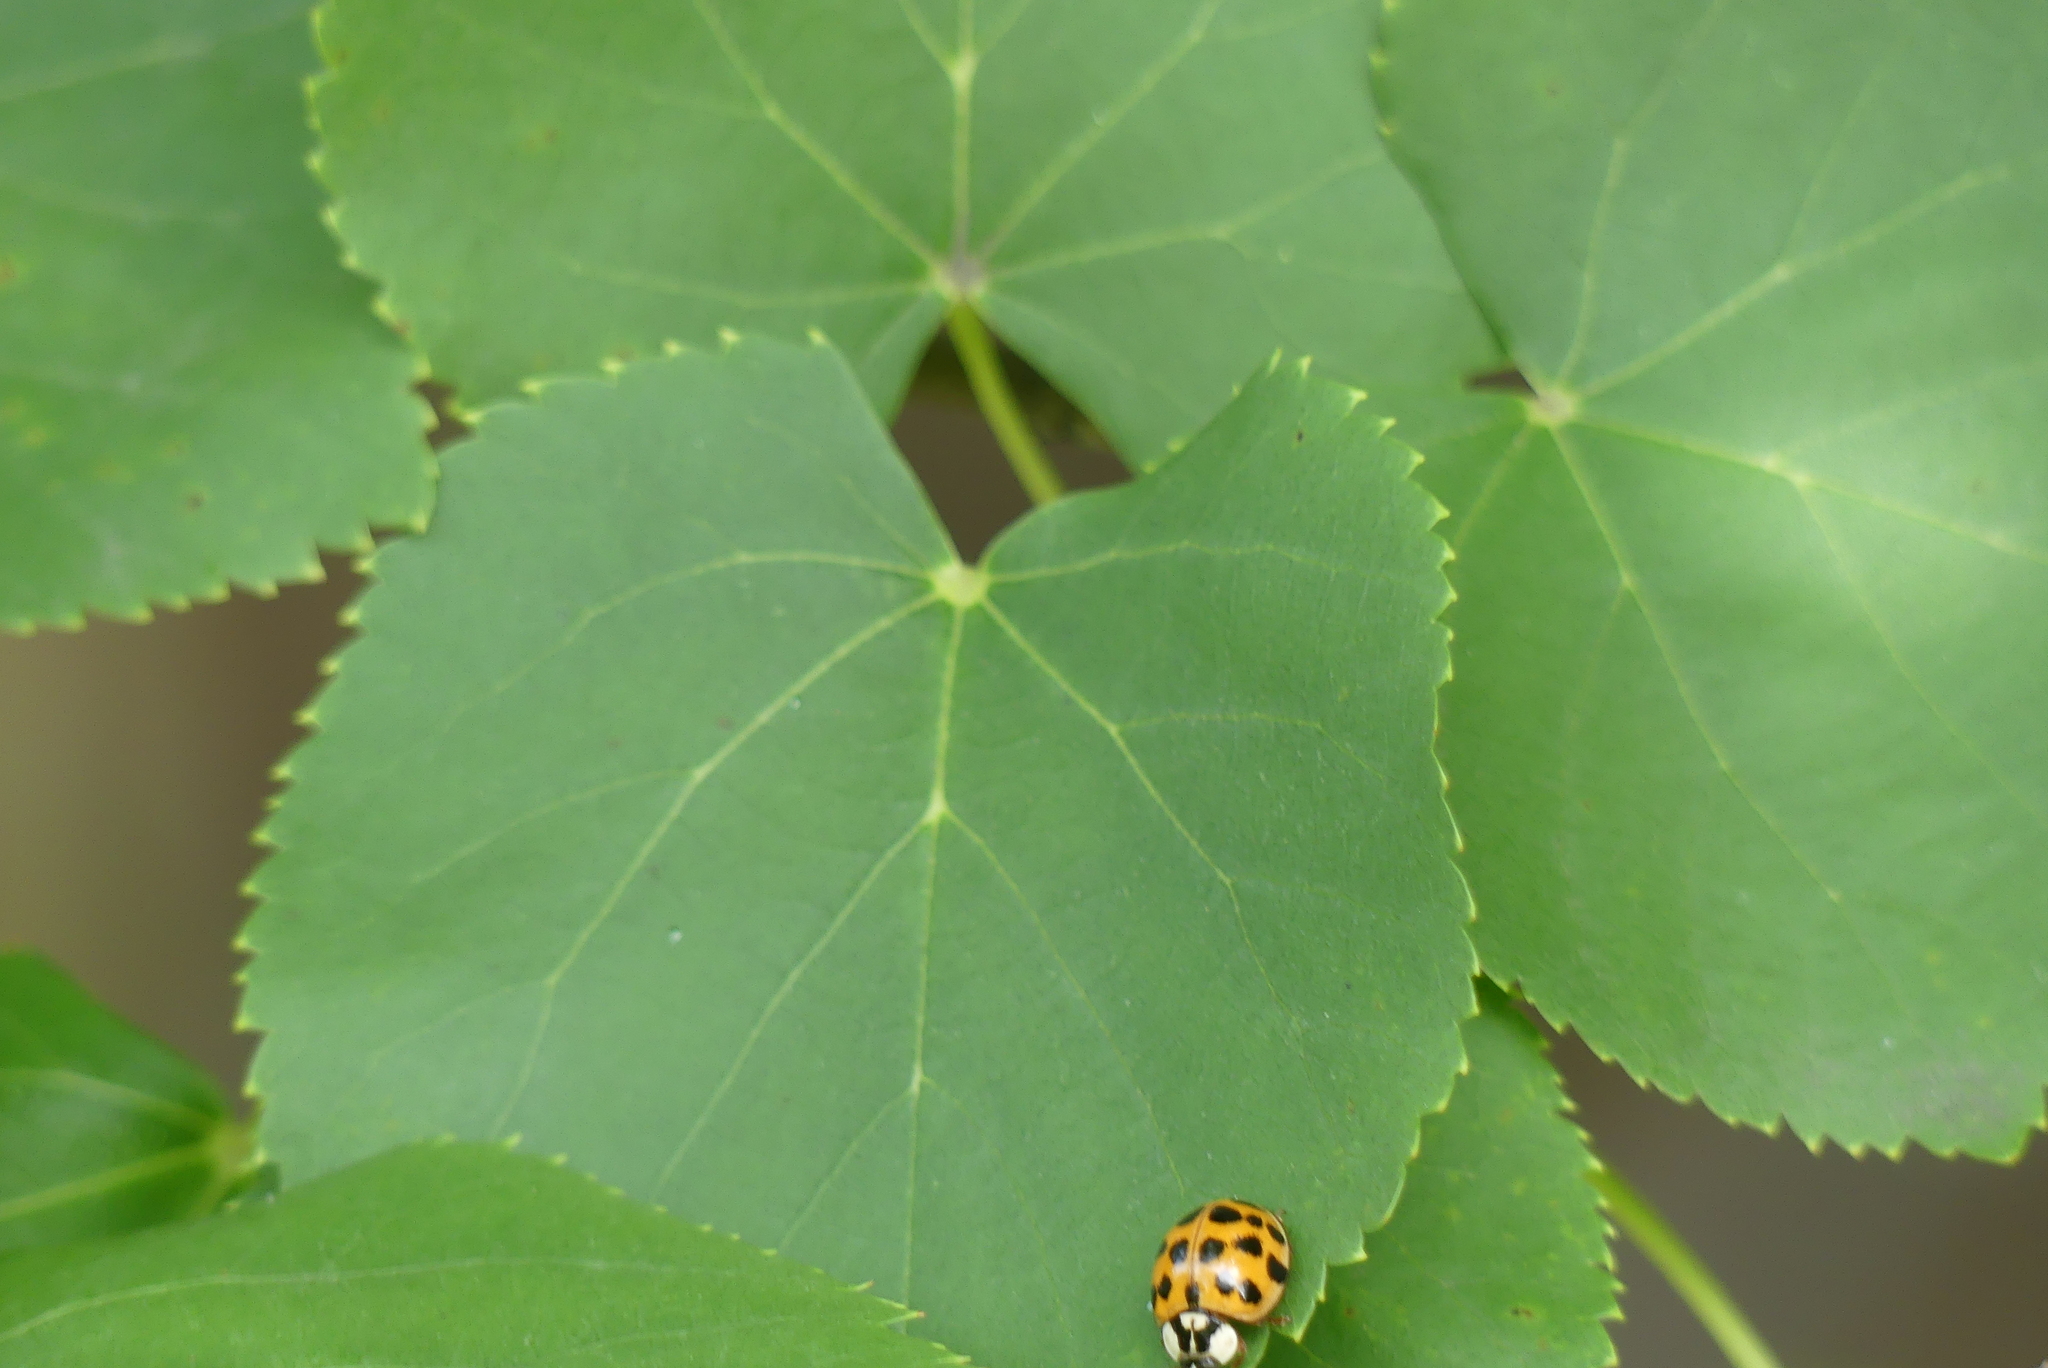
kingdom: Animalia
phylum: Arthropoda
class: Insecta
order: Coleoptera
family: Coccinellidae
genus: Harmonia
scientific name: Harmonia axyridis
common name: Harlequin ladybird
